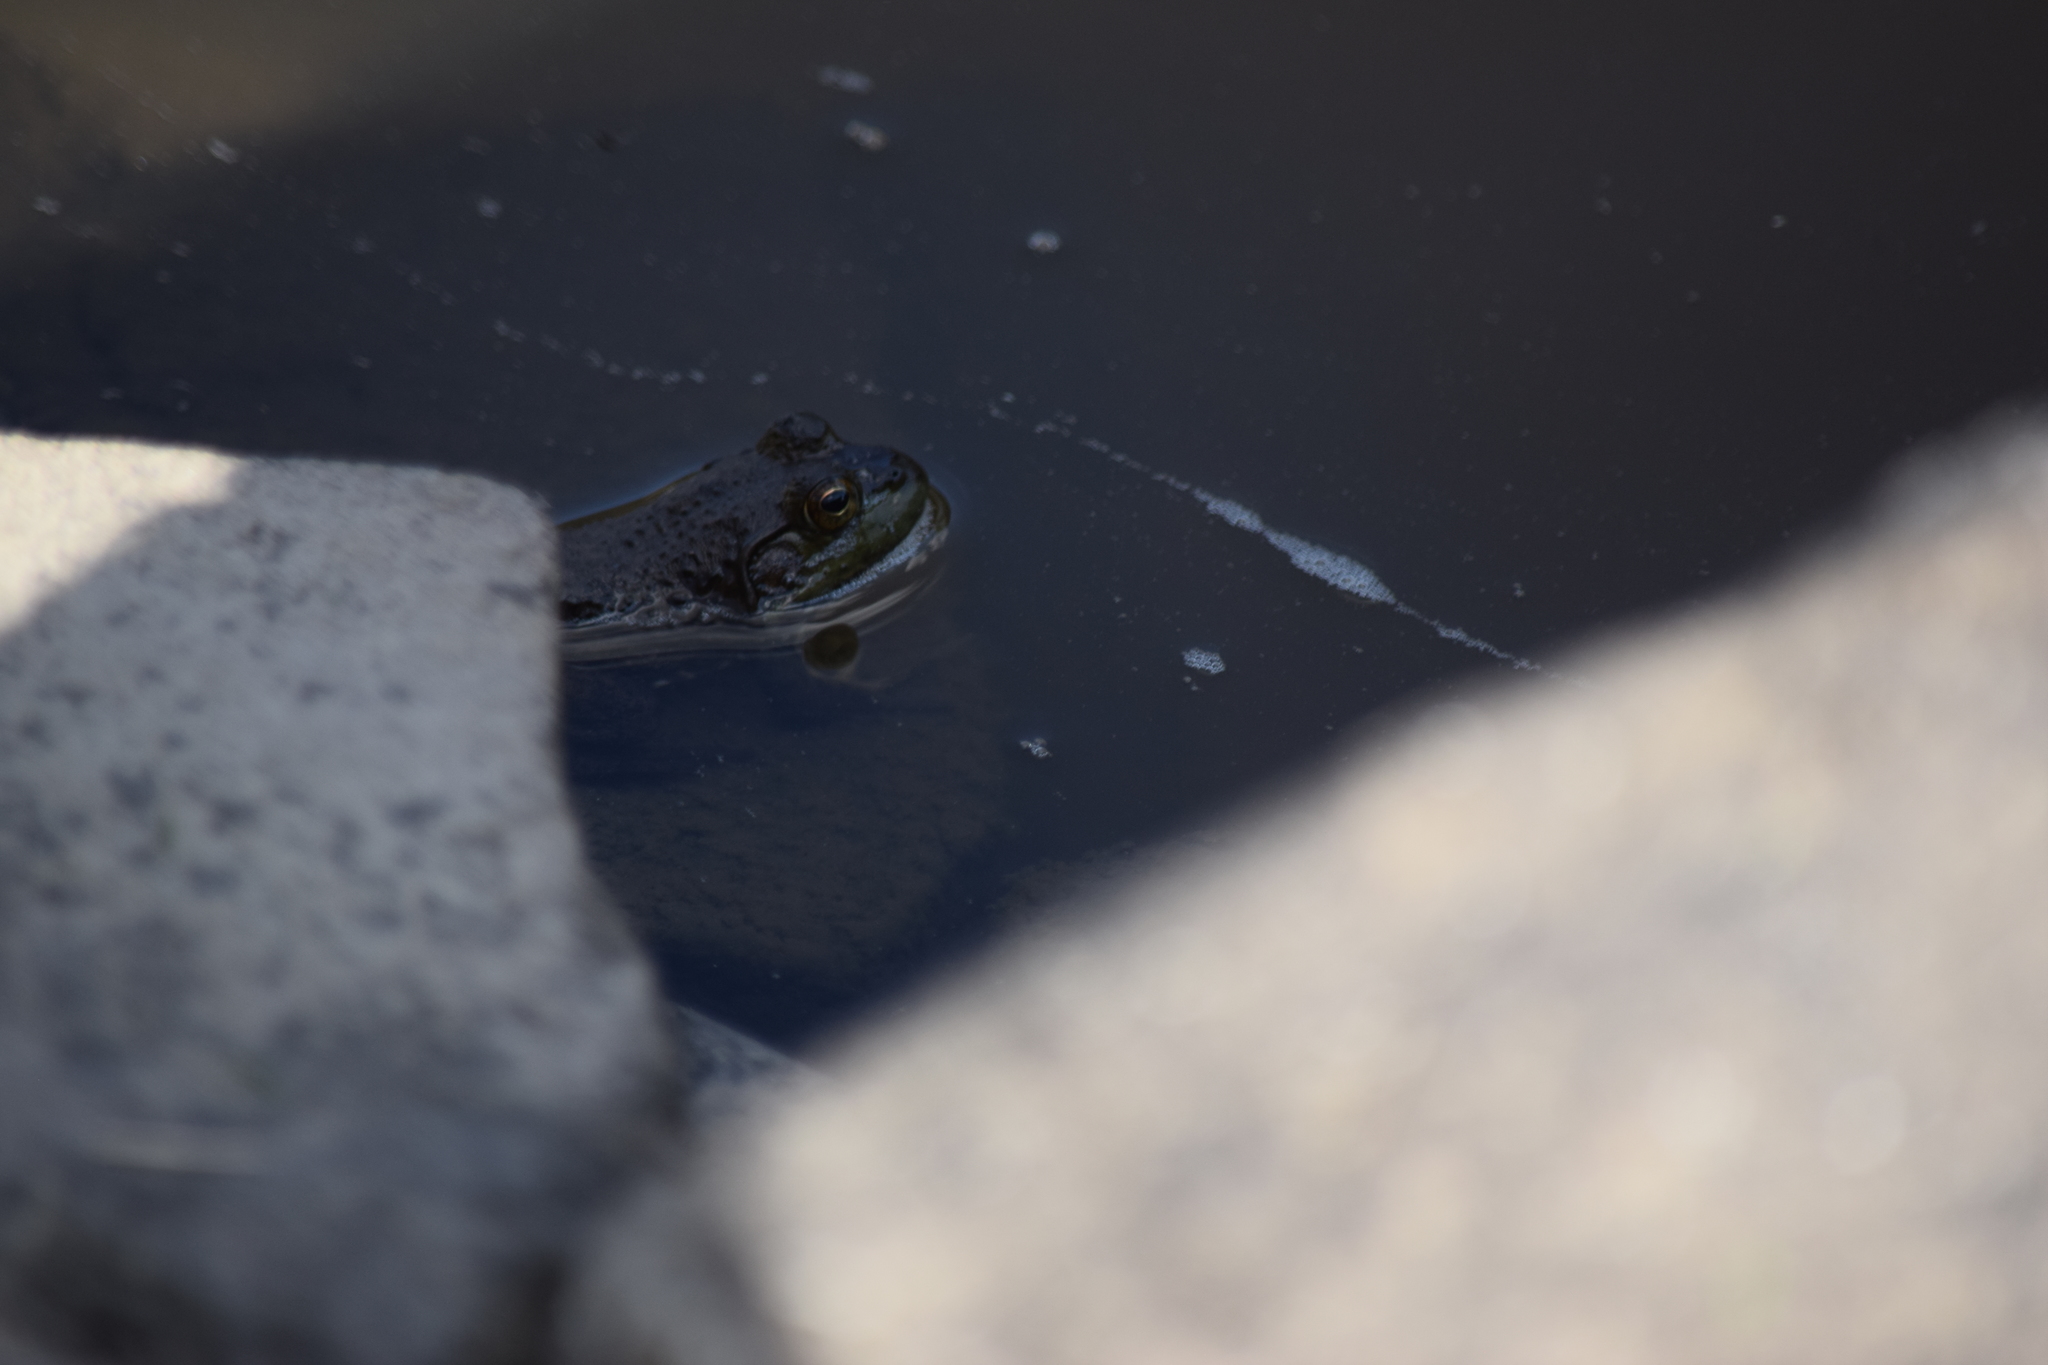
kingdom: Animalia
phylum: Chordata
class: Amphibia
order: Anura
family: Ranidae
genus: Lithobates
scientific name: Lithobates catesbeianus
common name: American bullfrog
